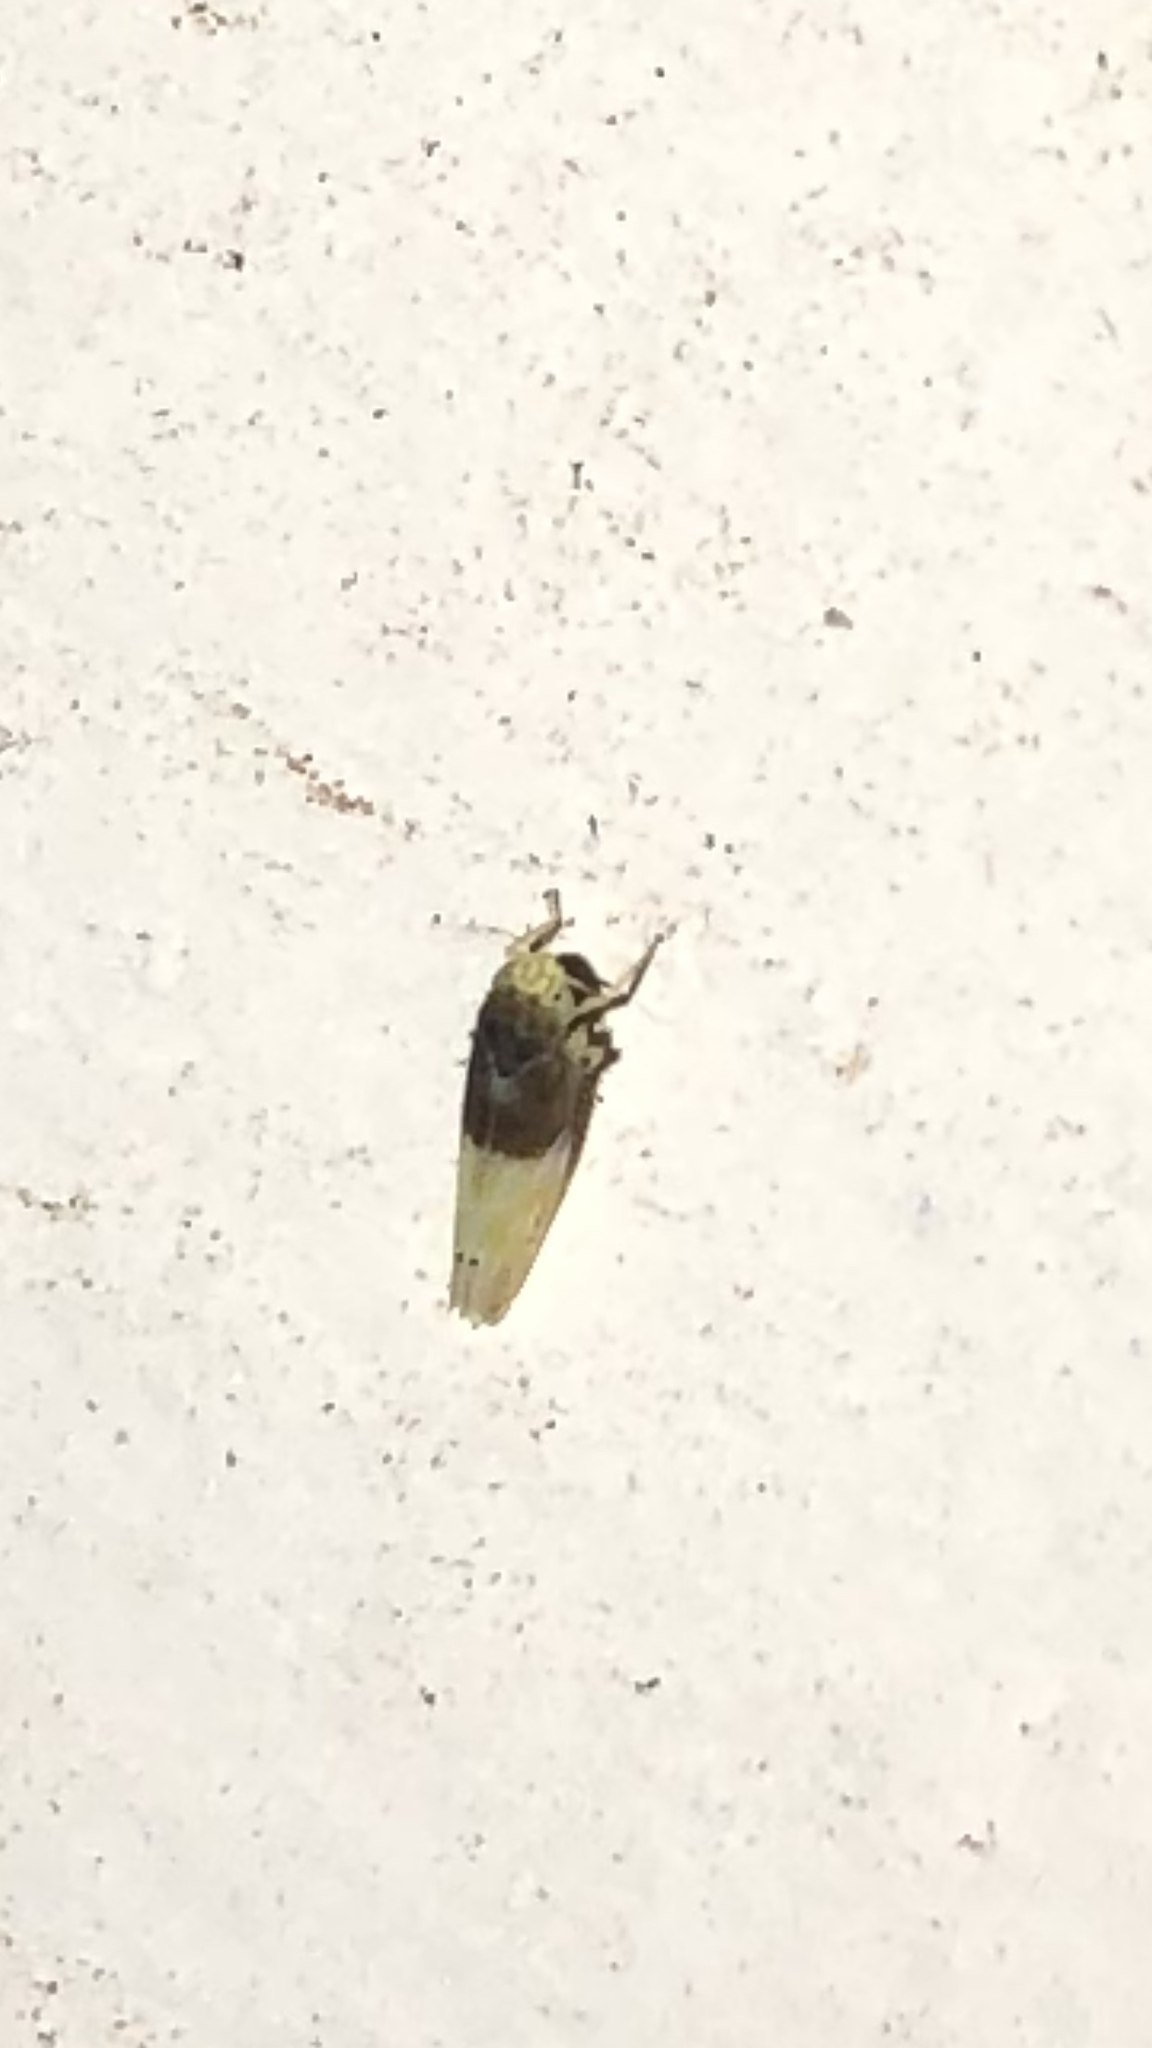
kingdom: Animalia
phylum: Arthropoda
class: Insecta
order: Hemiptera
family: Cicadellidae
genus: Eratoneura
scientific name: Eratoneura
